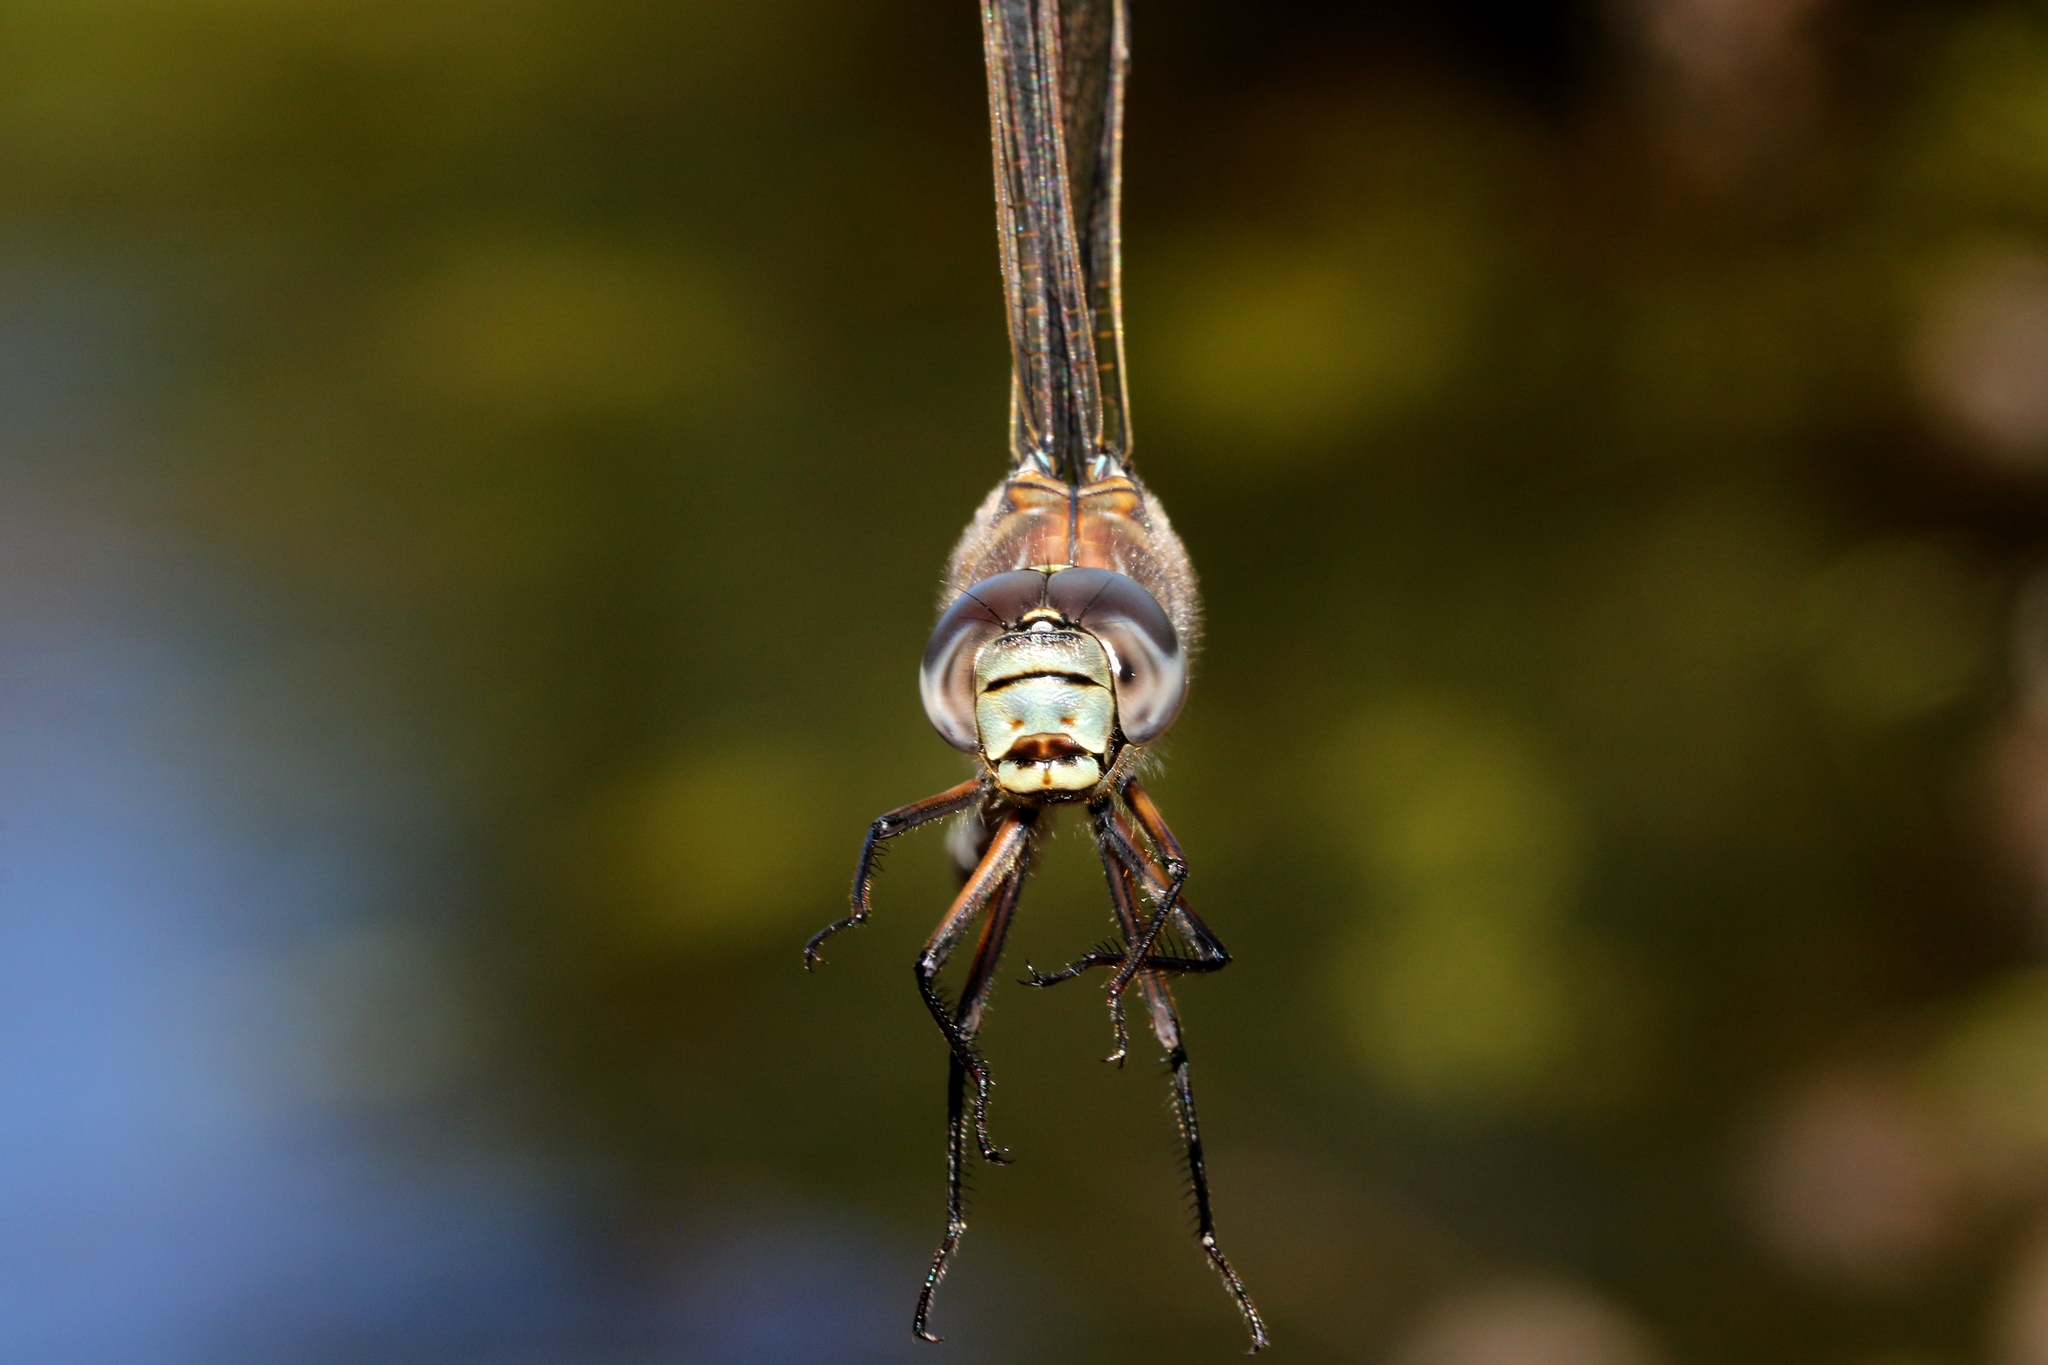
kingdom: Animalia
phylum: Arthropoda
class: Insecta
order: Odonata
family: Aeshnidae
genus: Aeshna
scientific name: Aeshna eremita
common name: Lake darner
